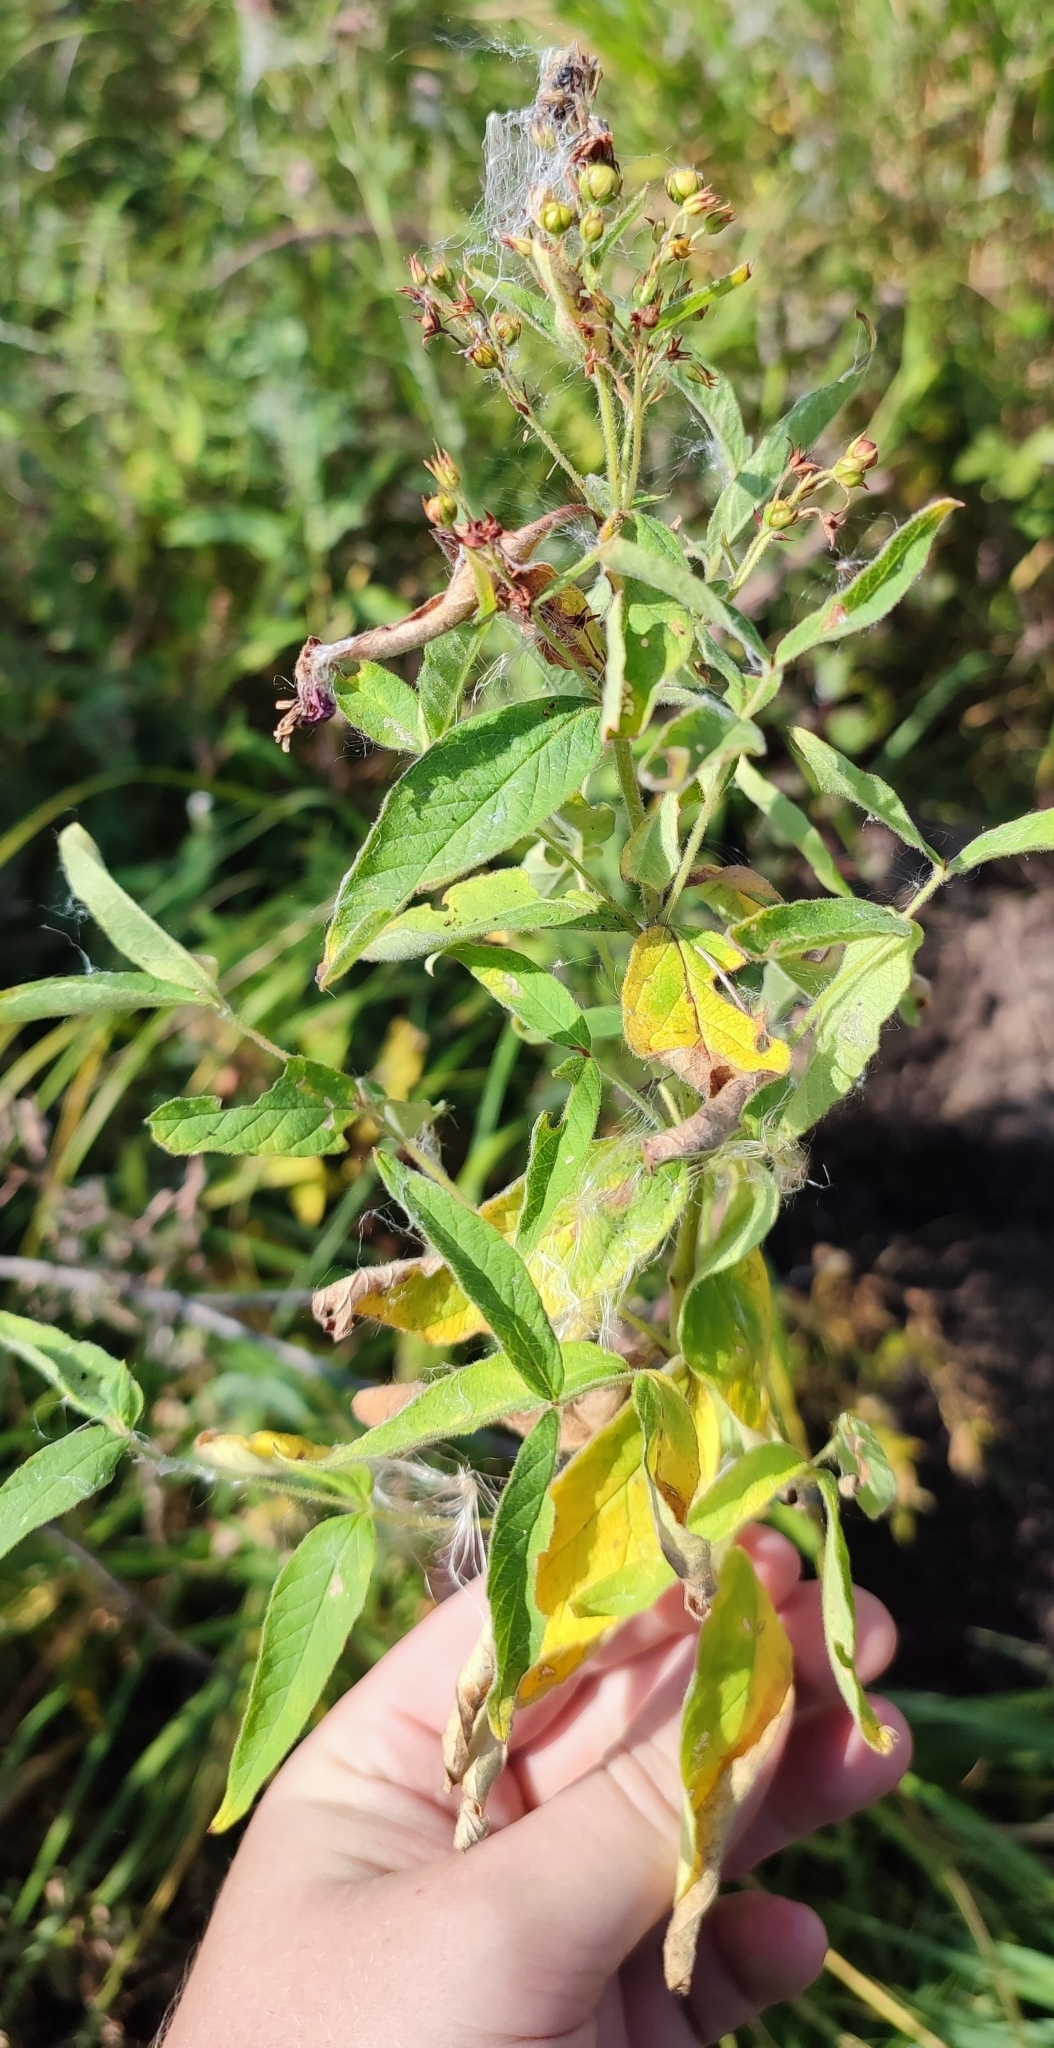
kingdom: Plantae
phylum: Tracheophyta
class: Magnoliopsida
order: Ericales
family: Primulaceae
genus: Lysimachia
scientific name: Lysimachia vulgaris
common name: Yellow loosestrife
